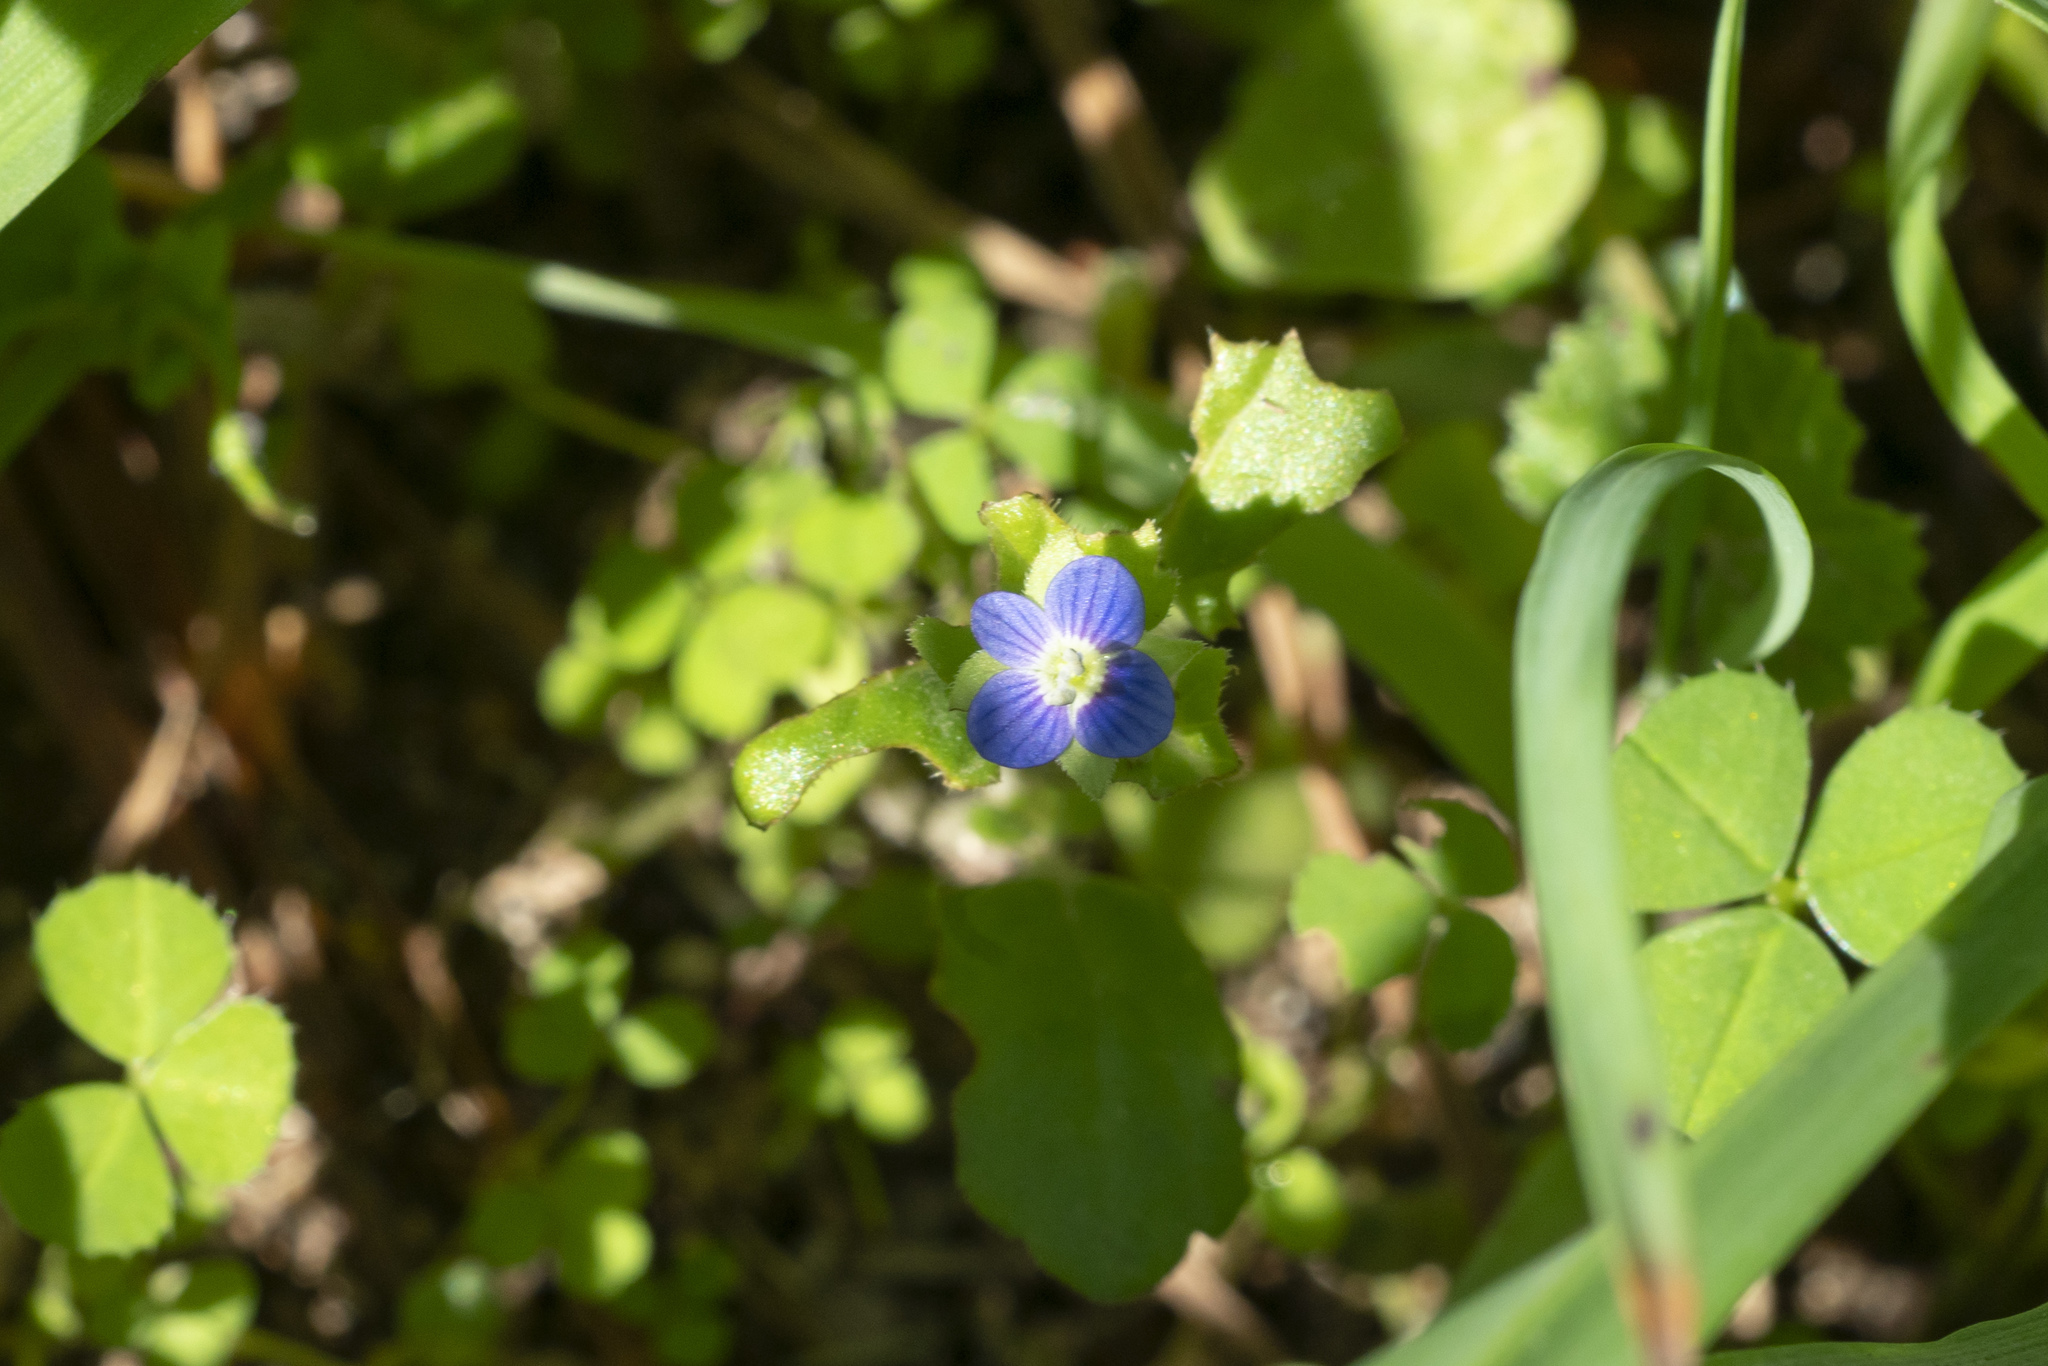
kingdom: Plantae
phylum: Tracheophyta
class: Magnoliopsida
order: Lamiales
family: Plantaginaceae
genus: Veronica
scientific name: Veronica polita
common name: Grey field-speedwell
